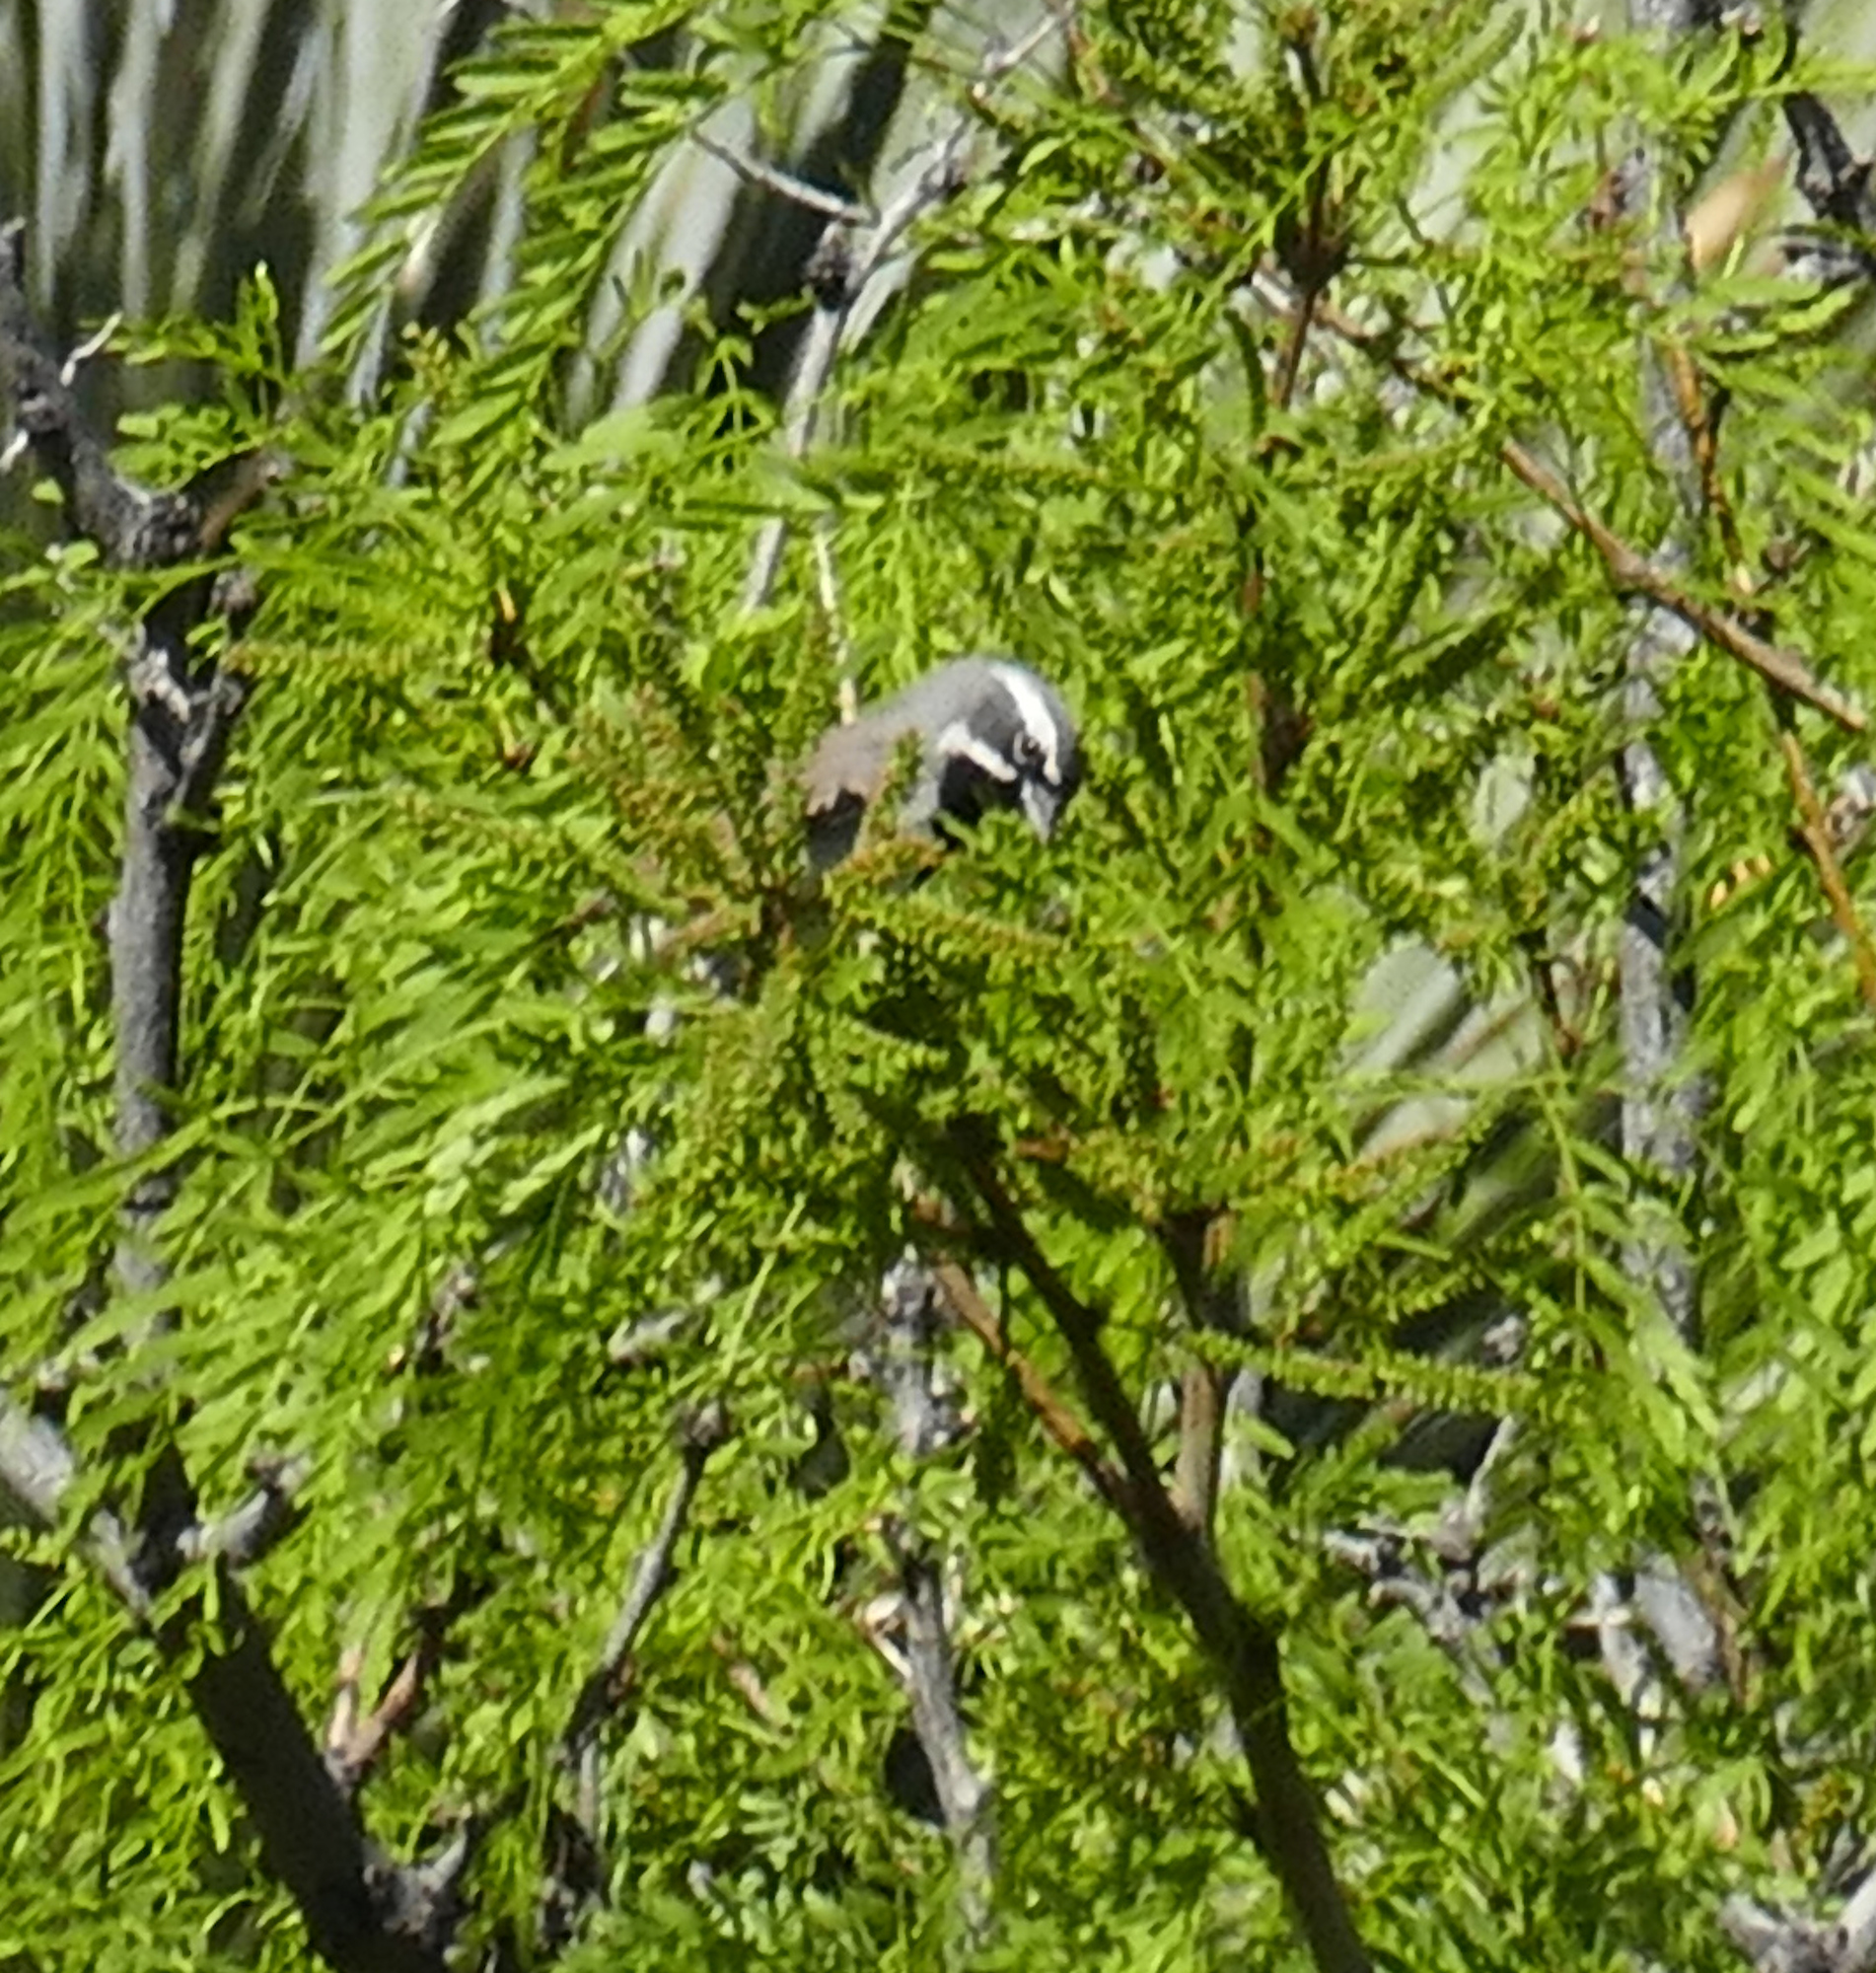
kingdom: Animalia
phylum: Chordata
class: Aves
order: Passeriformes
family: Passerellidae
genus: Amphispiza
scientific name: Amphispiza bilineata
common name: Black-throated sparrow
